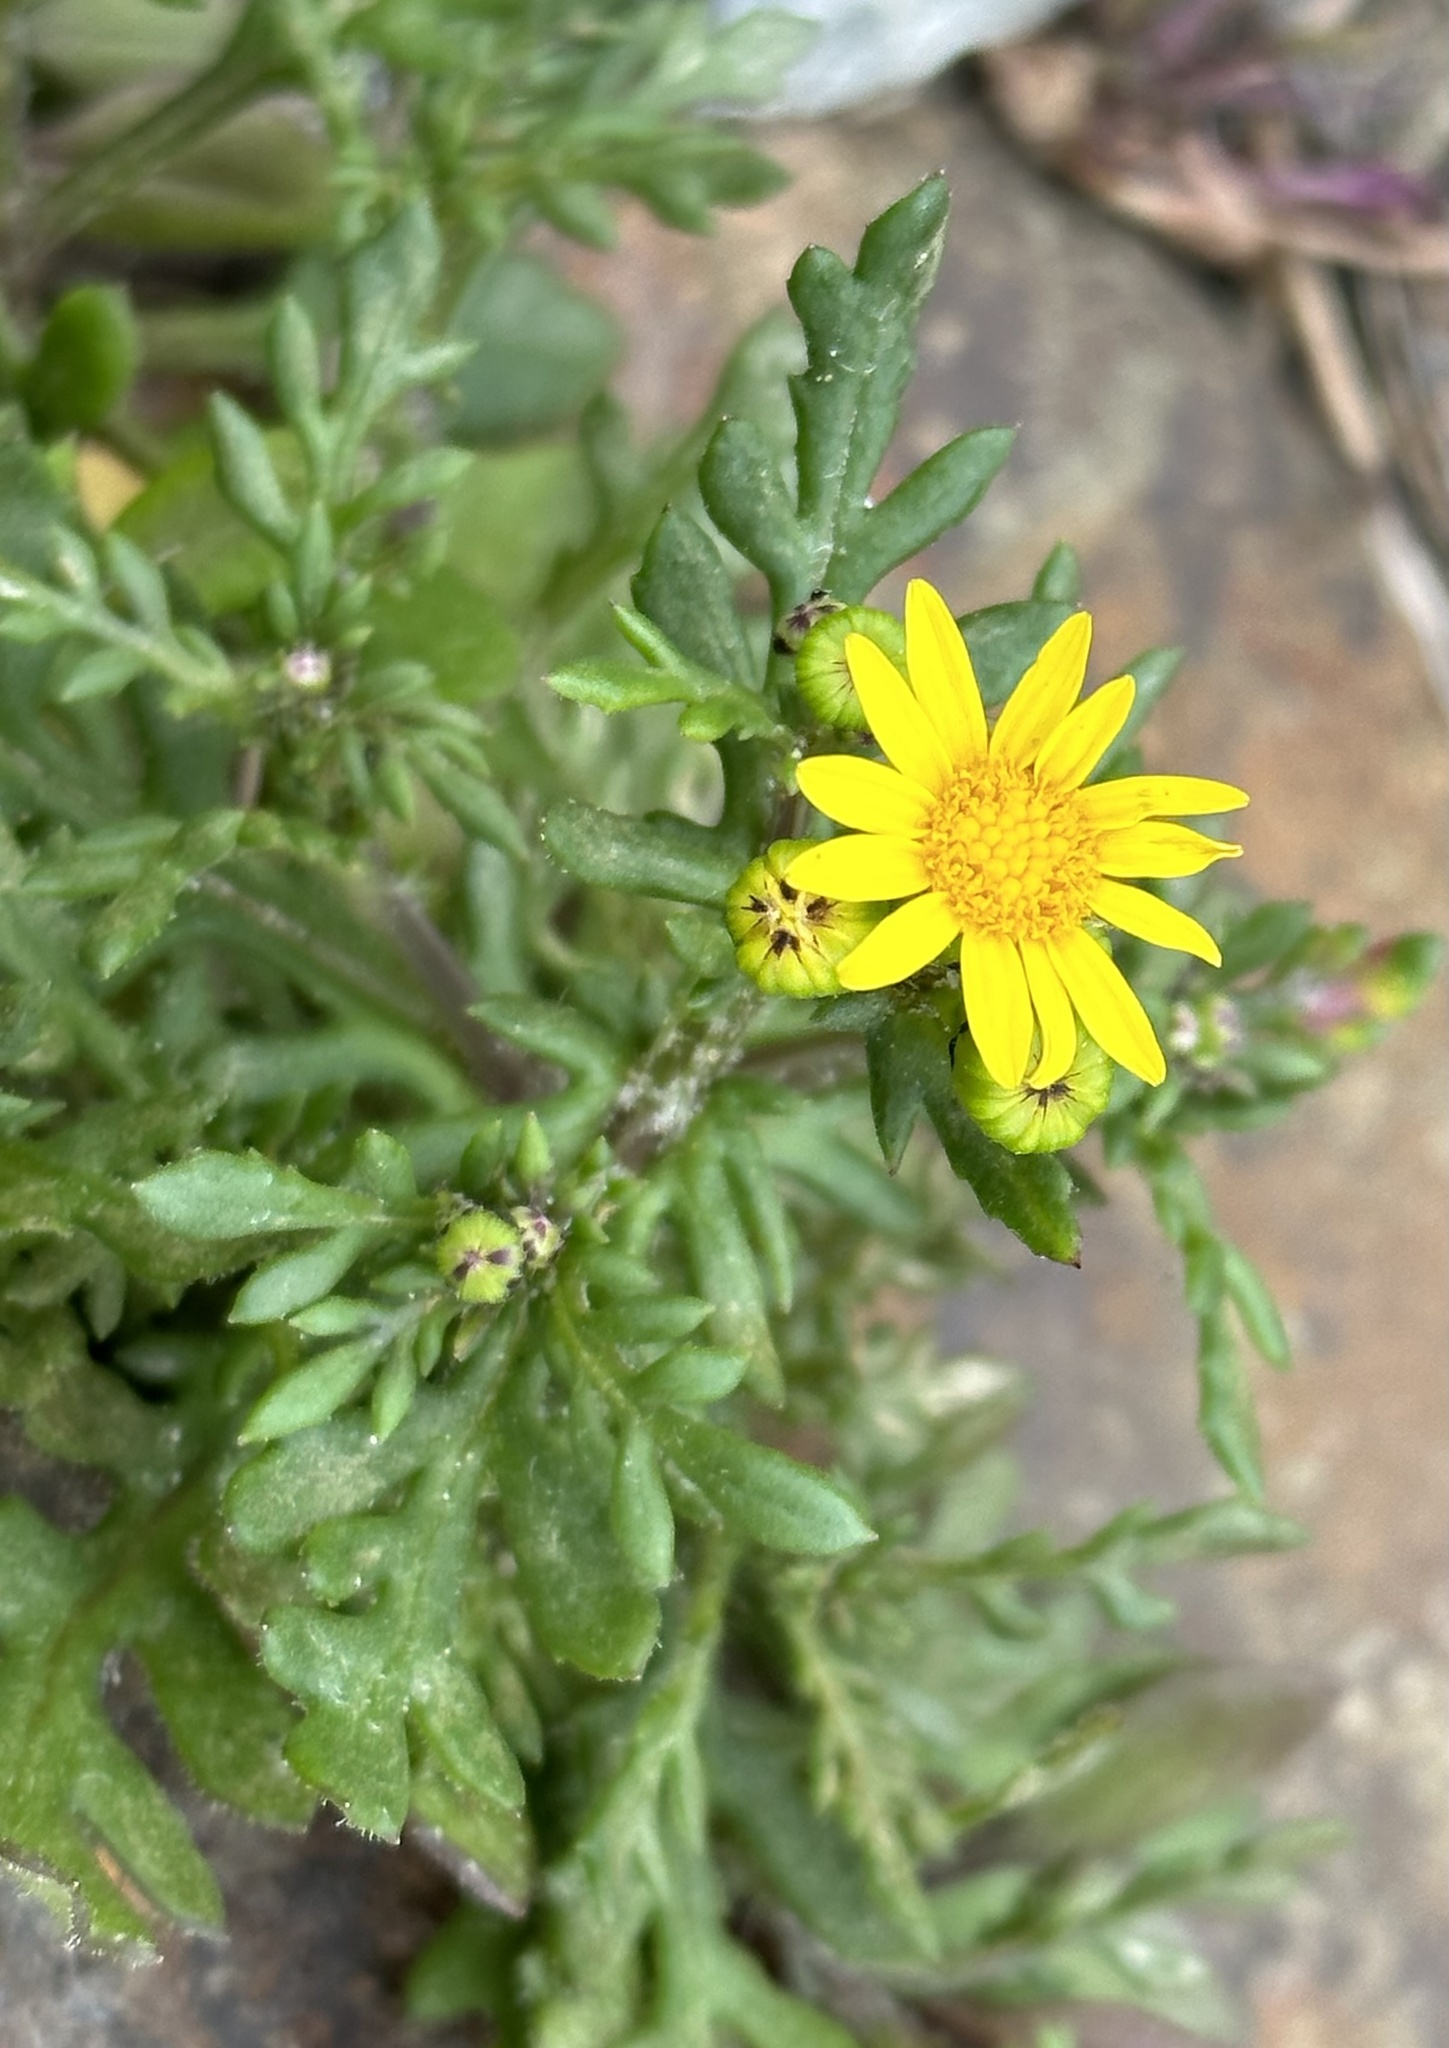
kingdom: Plantae
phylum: Tracheophyta
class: Magnoliopsida
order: Asterales
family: Asteraceae
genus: Senecio
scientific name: Senecio lautus
